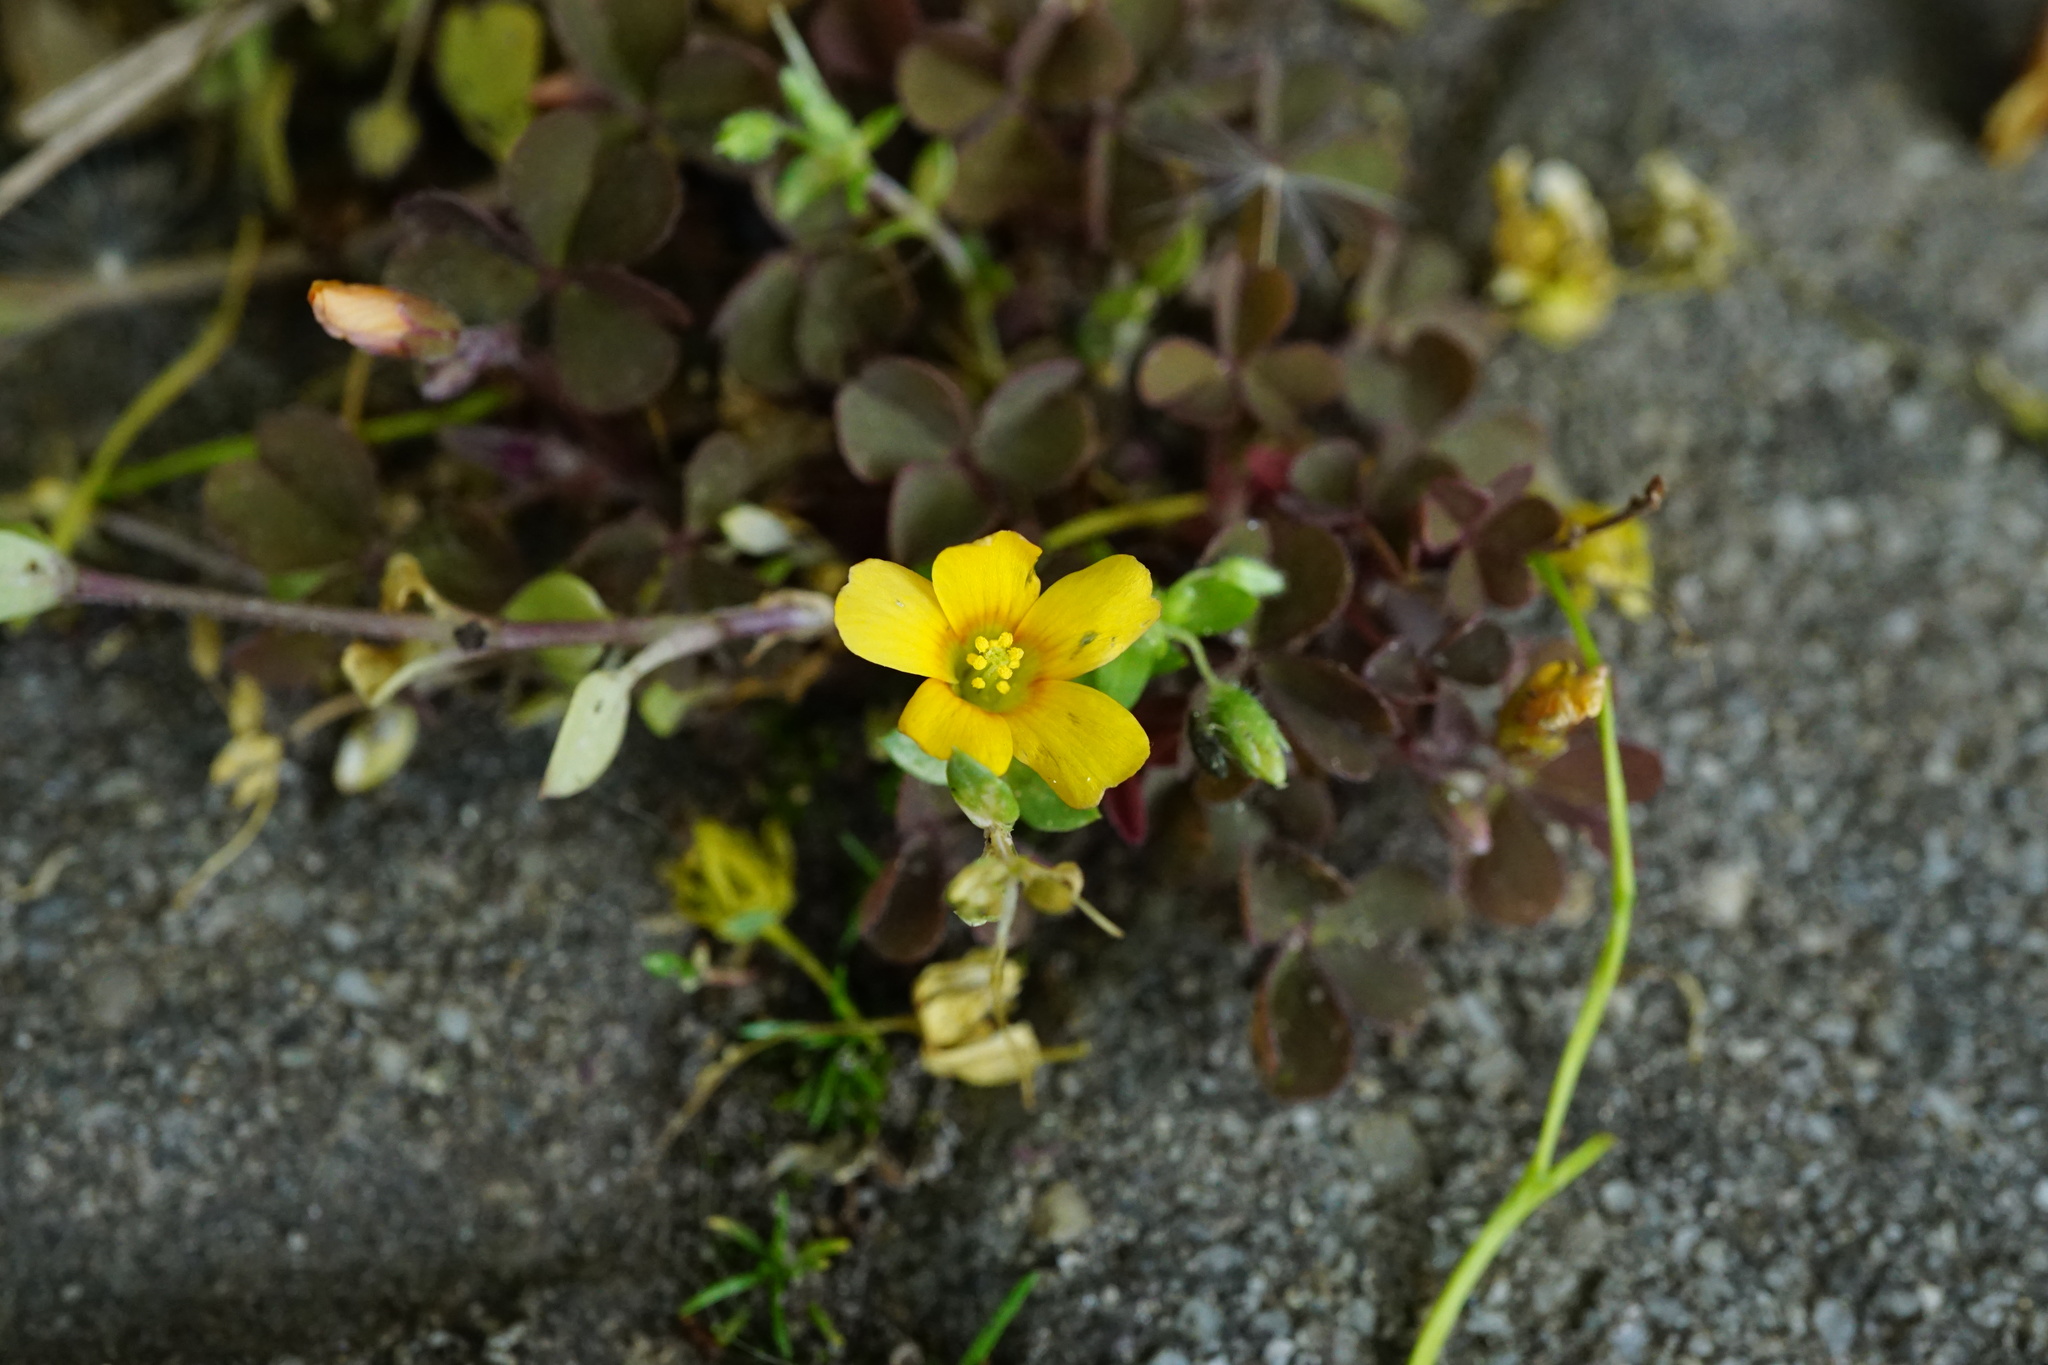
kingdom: Plantae
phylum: Tracheophyta
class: Magnoliopsida
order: Oxalidales
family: Oxalidaceae
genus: Oxalis
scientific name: Oxalis corniculata
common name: Procumbent yellow-sorrel
